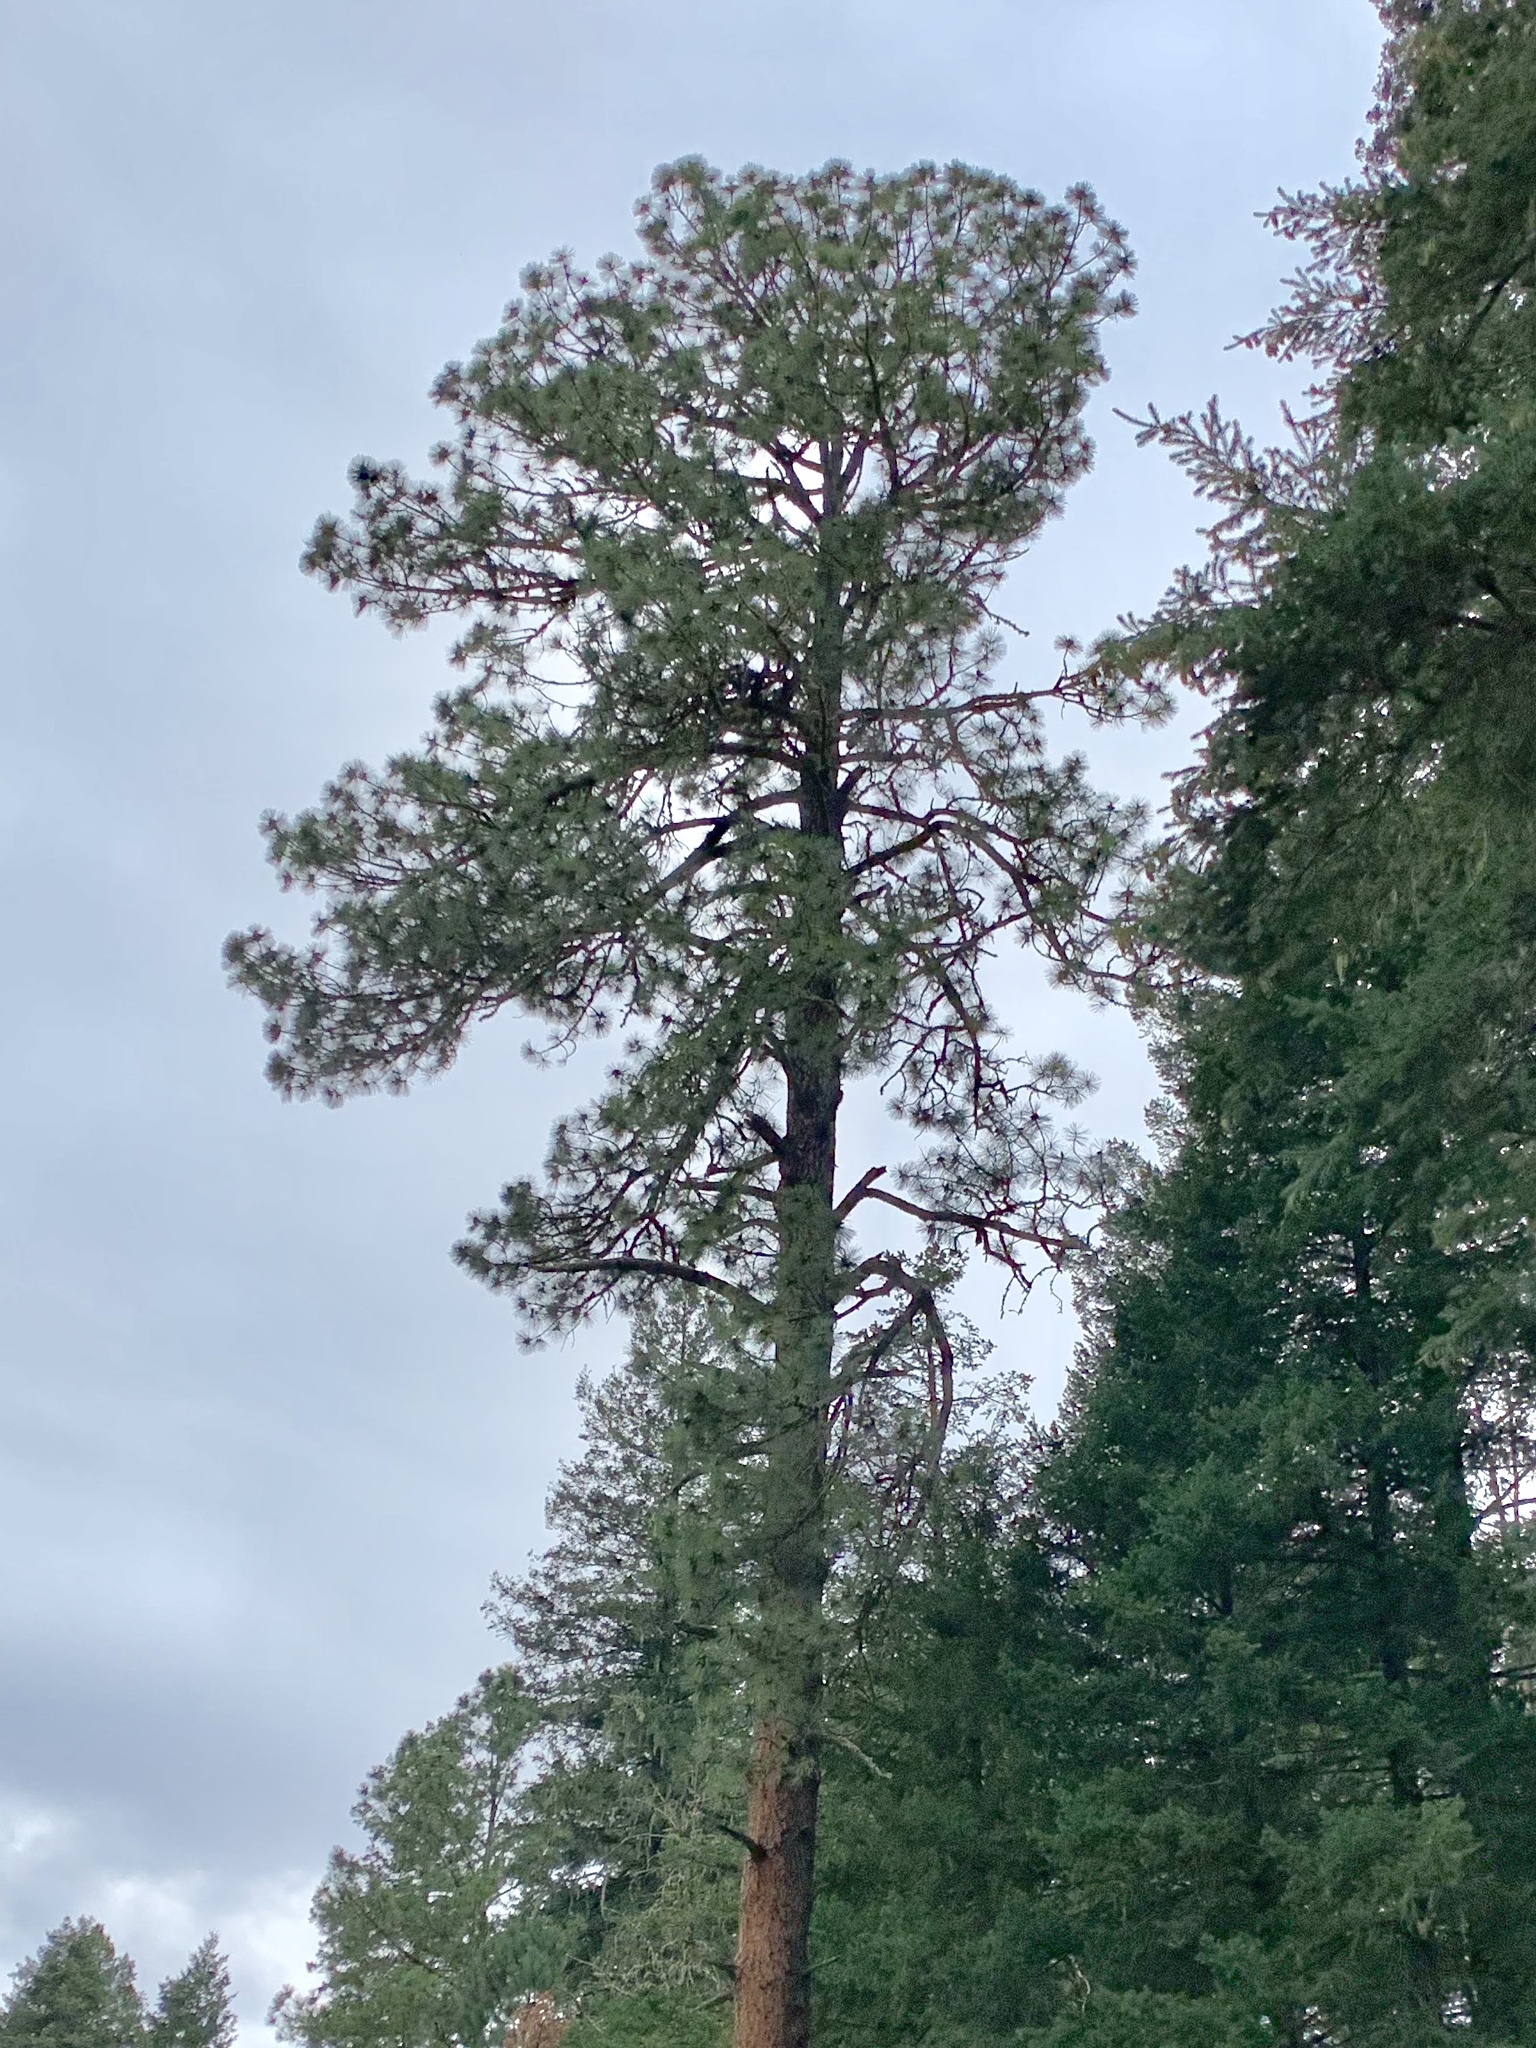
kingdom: Plantae
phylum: Tracheophyta
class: Pinopsida
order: Pinales
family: Pinaceae
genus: Pinus
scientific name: Pinus ponderosa
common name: Western yellow-pine
